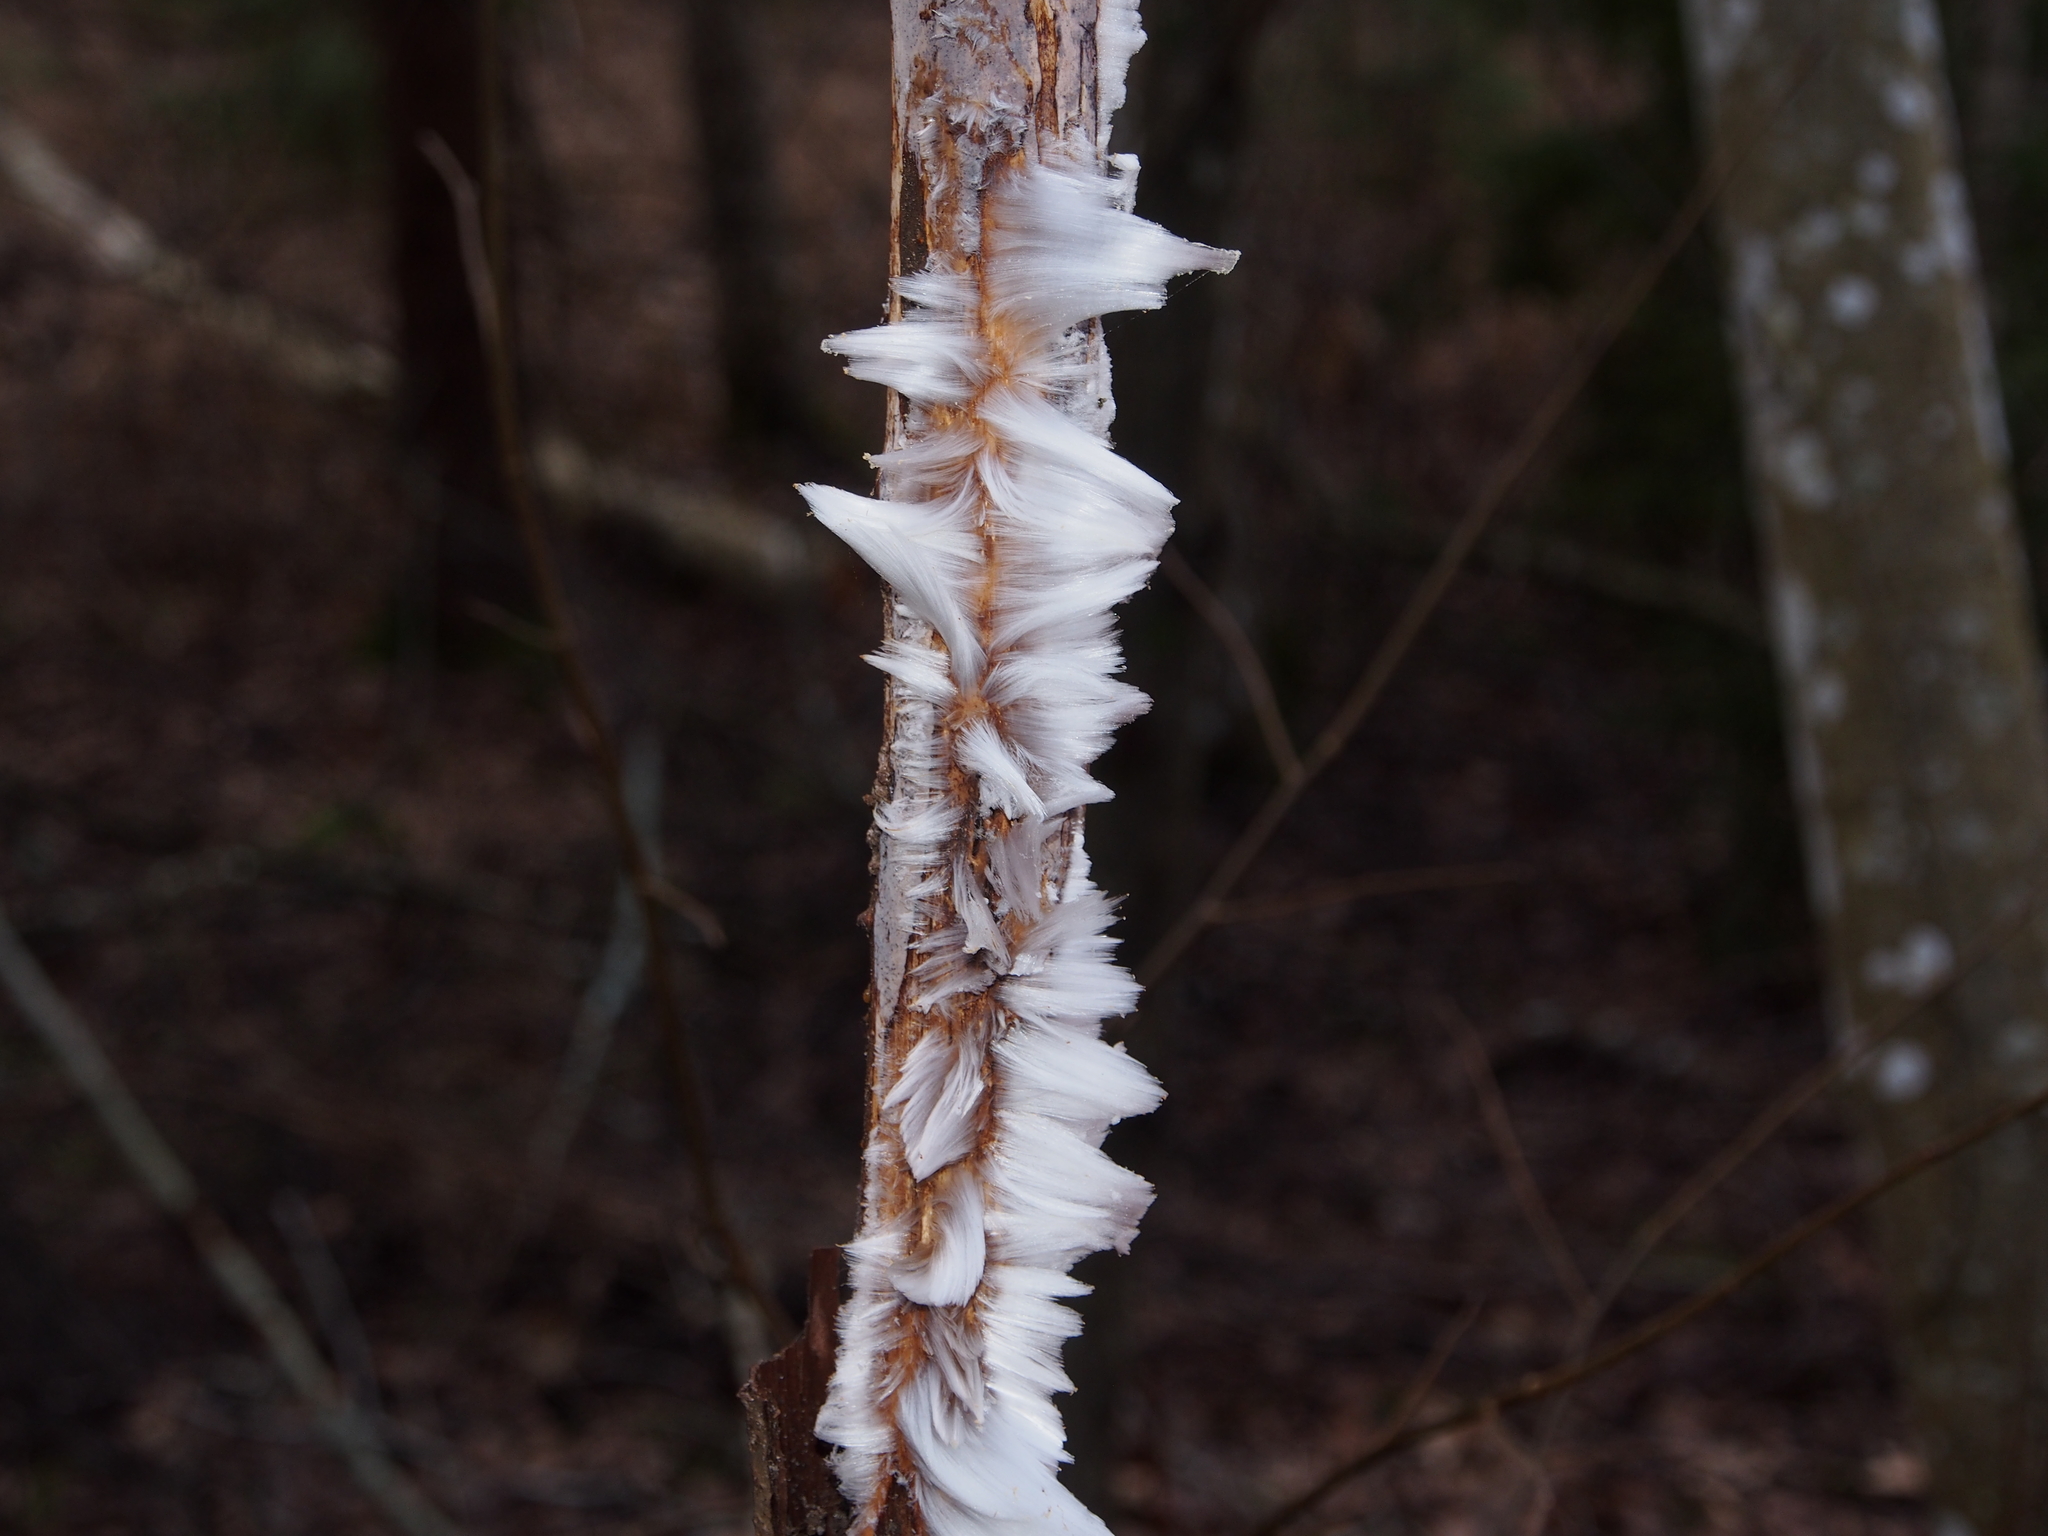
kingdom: Fungi
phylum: Basidiomycota
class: Agaricomycetes
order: Auriculariales
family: Auriculariaceae
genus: Exidiopsis
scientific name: Exidiopsis effusa
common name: Hair ice crust
